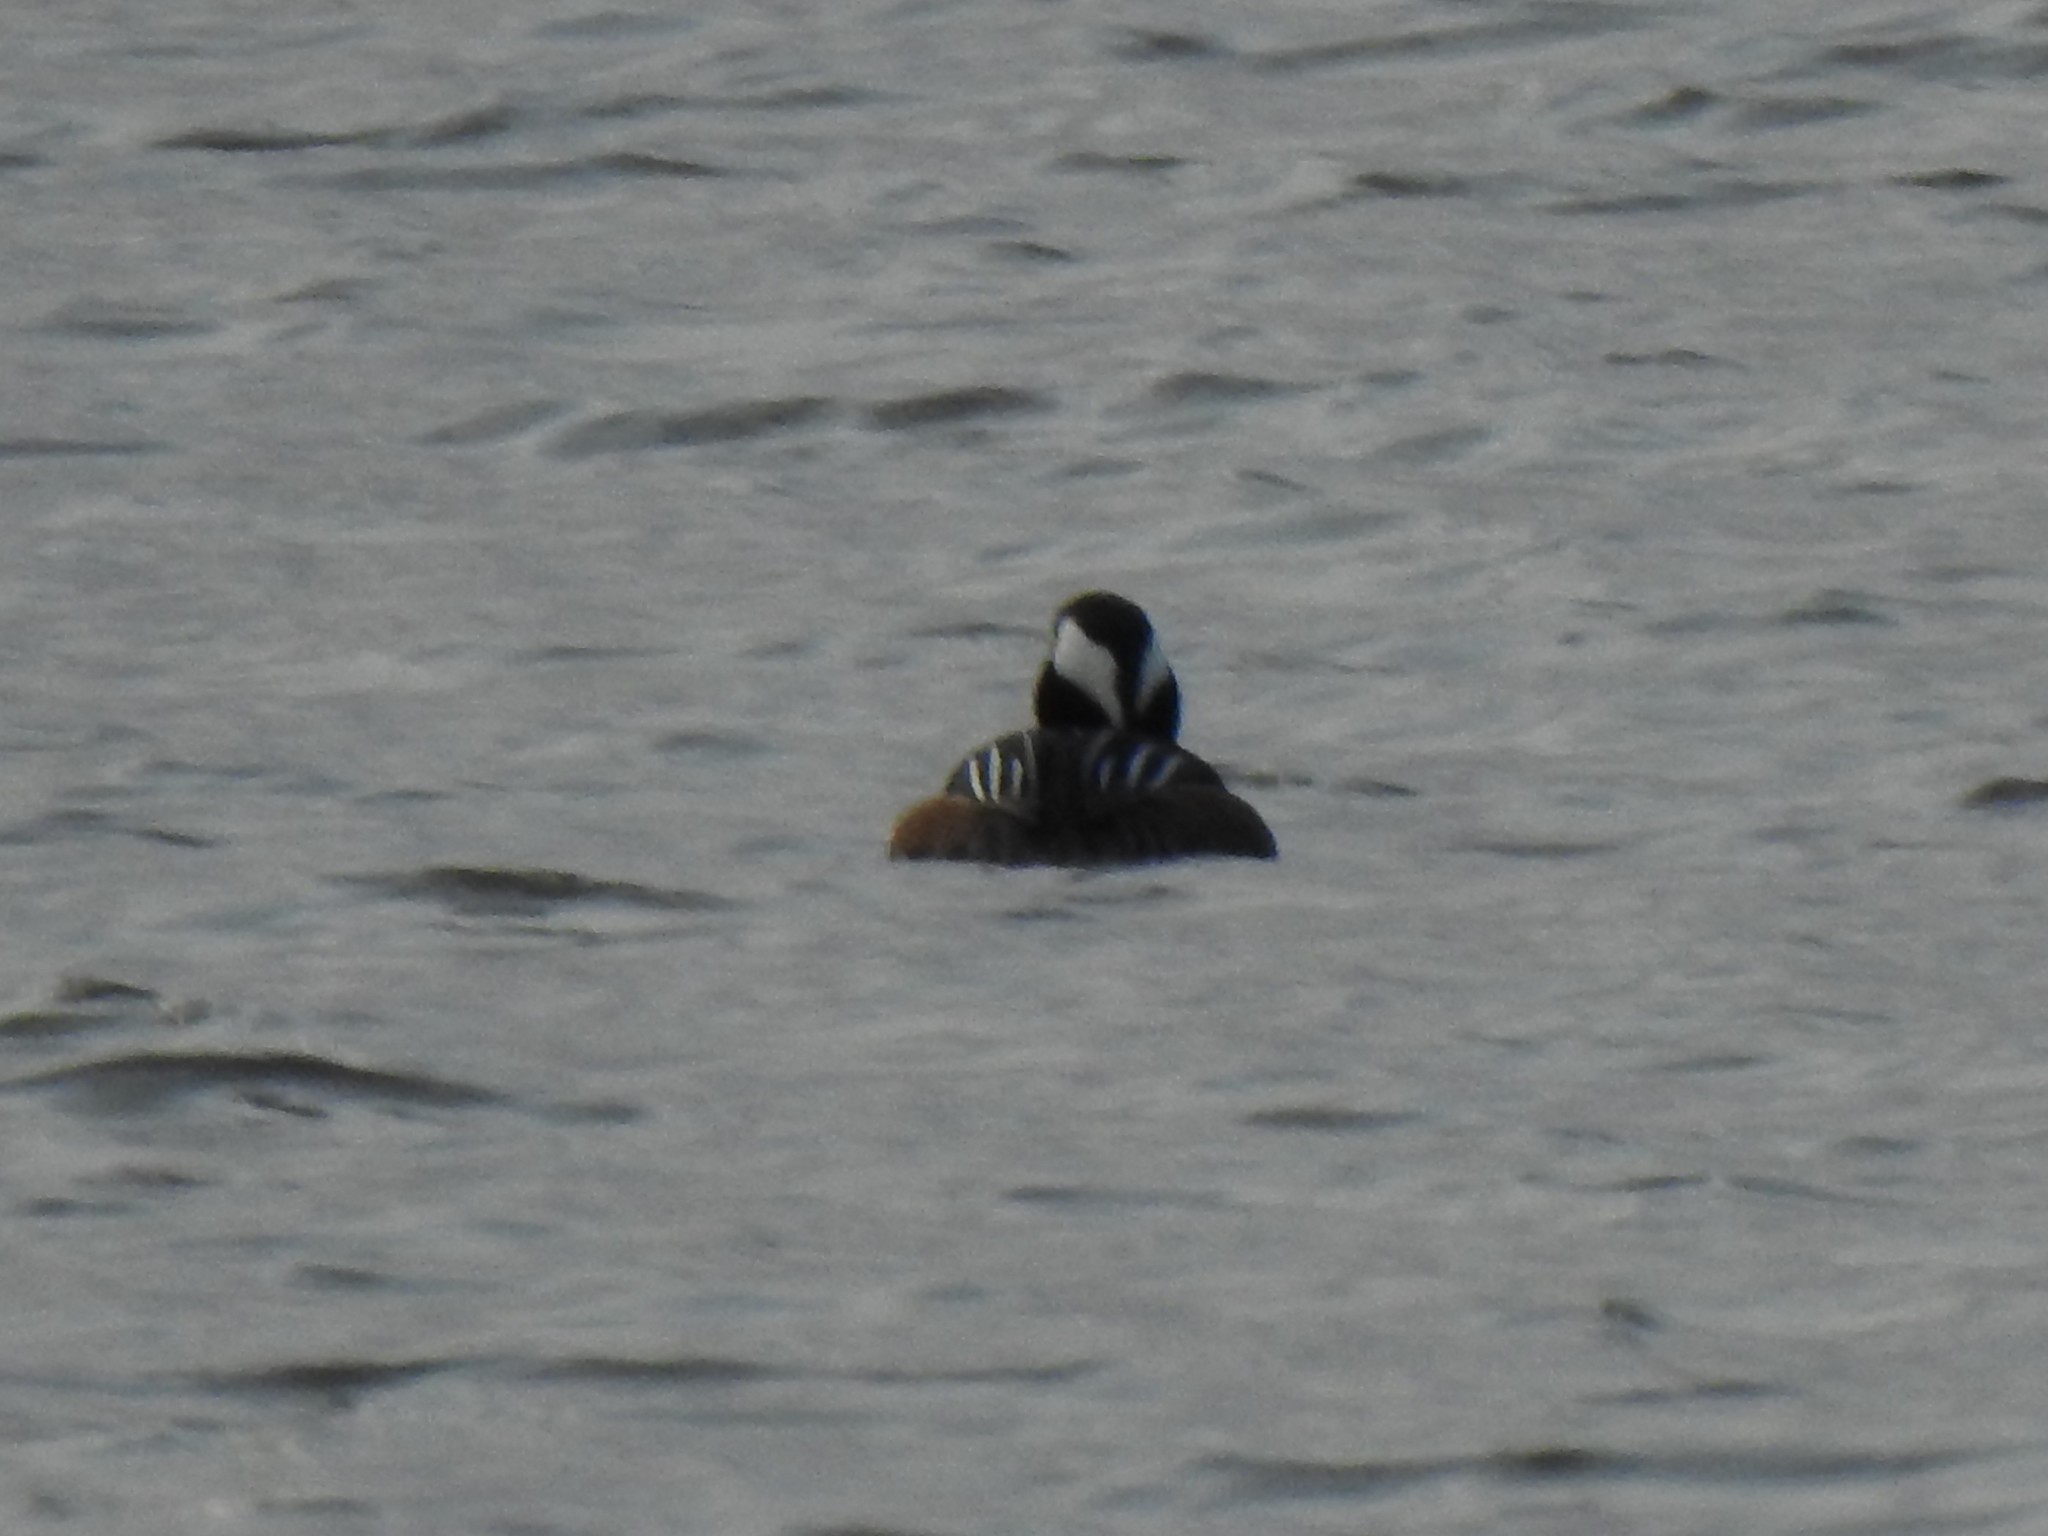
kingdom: Animalia
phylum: Chordata
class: Aves
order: Anseriformes
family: Anatidae
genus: Lophodytes
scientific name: Lophodytes cucullatus
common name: Hooded merganser
